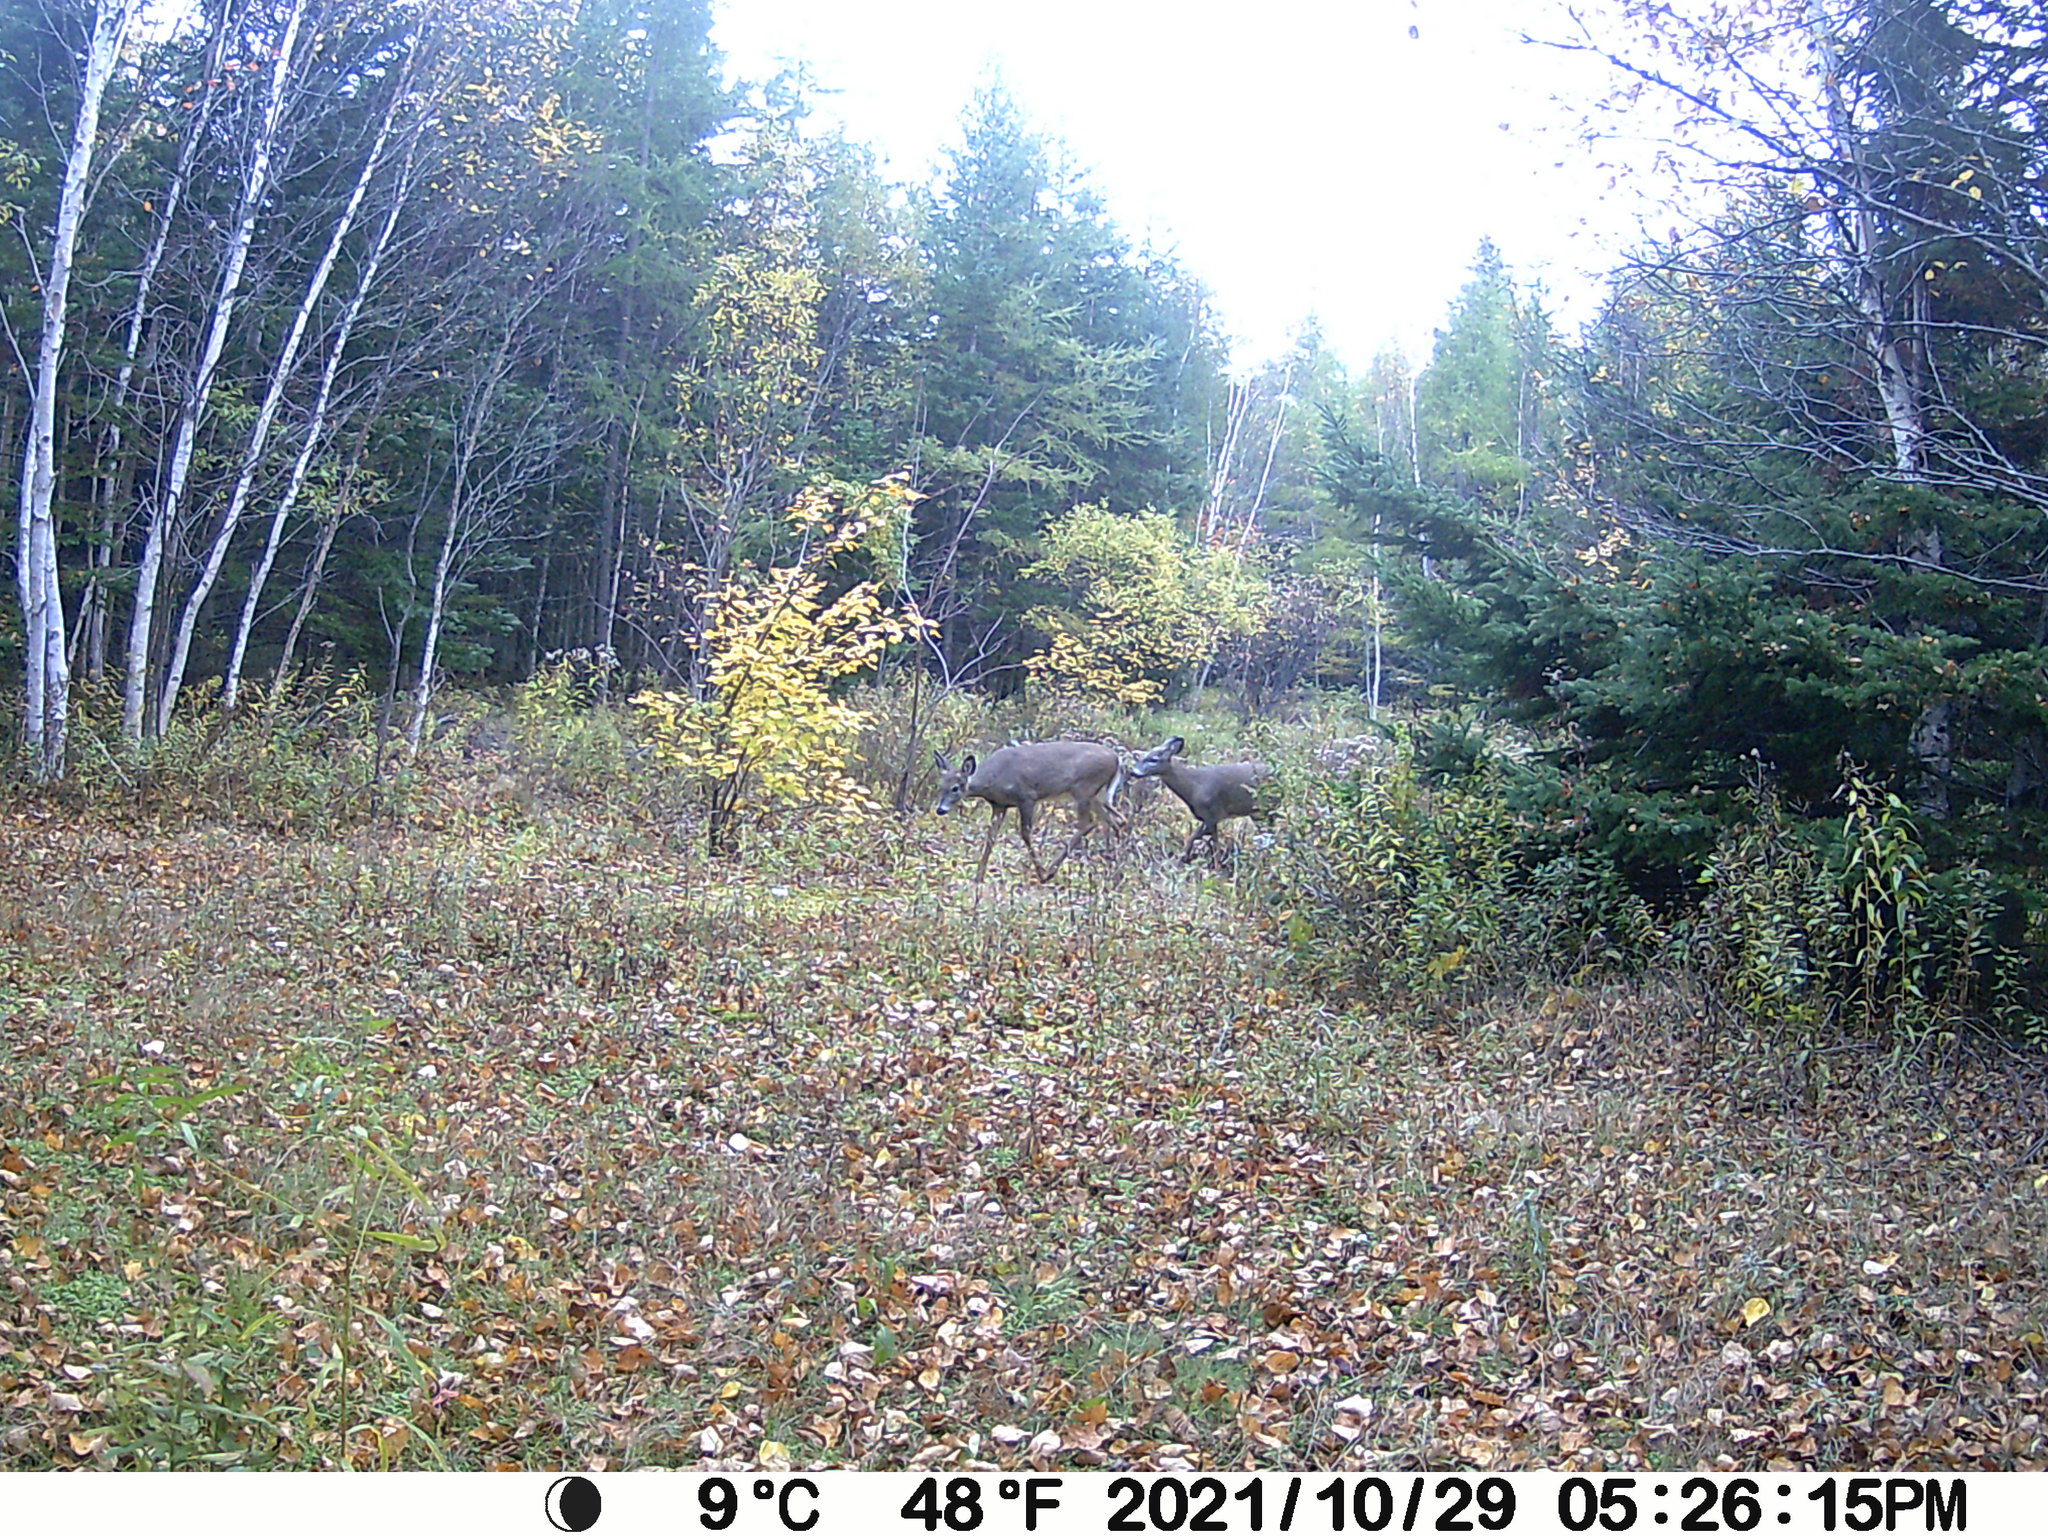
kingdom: Animalia
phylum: Chordata
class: Mammalia
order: Artiodactyla
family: Cervidae
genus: Odocoileus
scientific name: Odocoileus virginianus
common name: White-tailed deer
